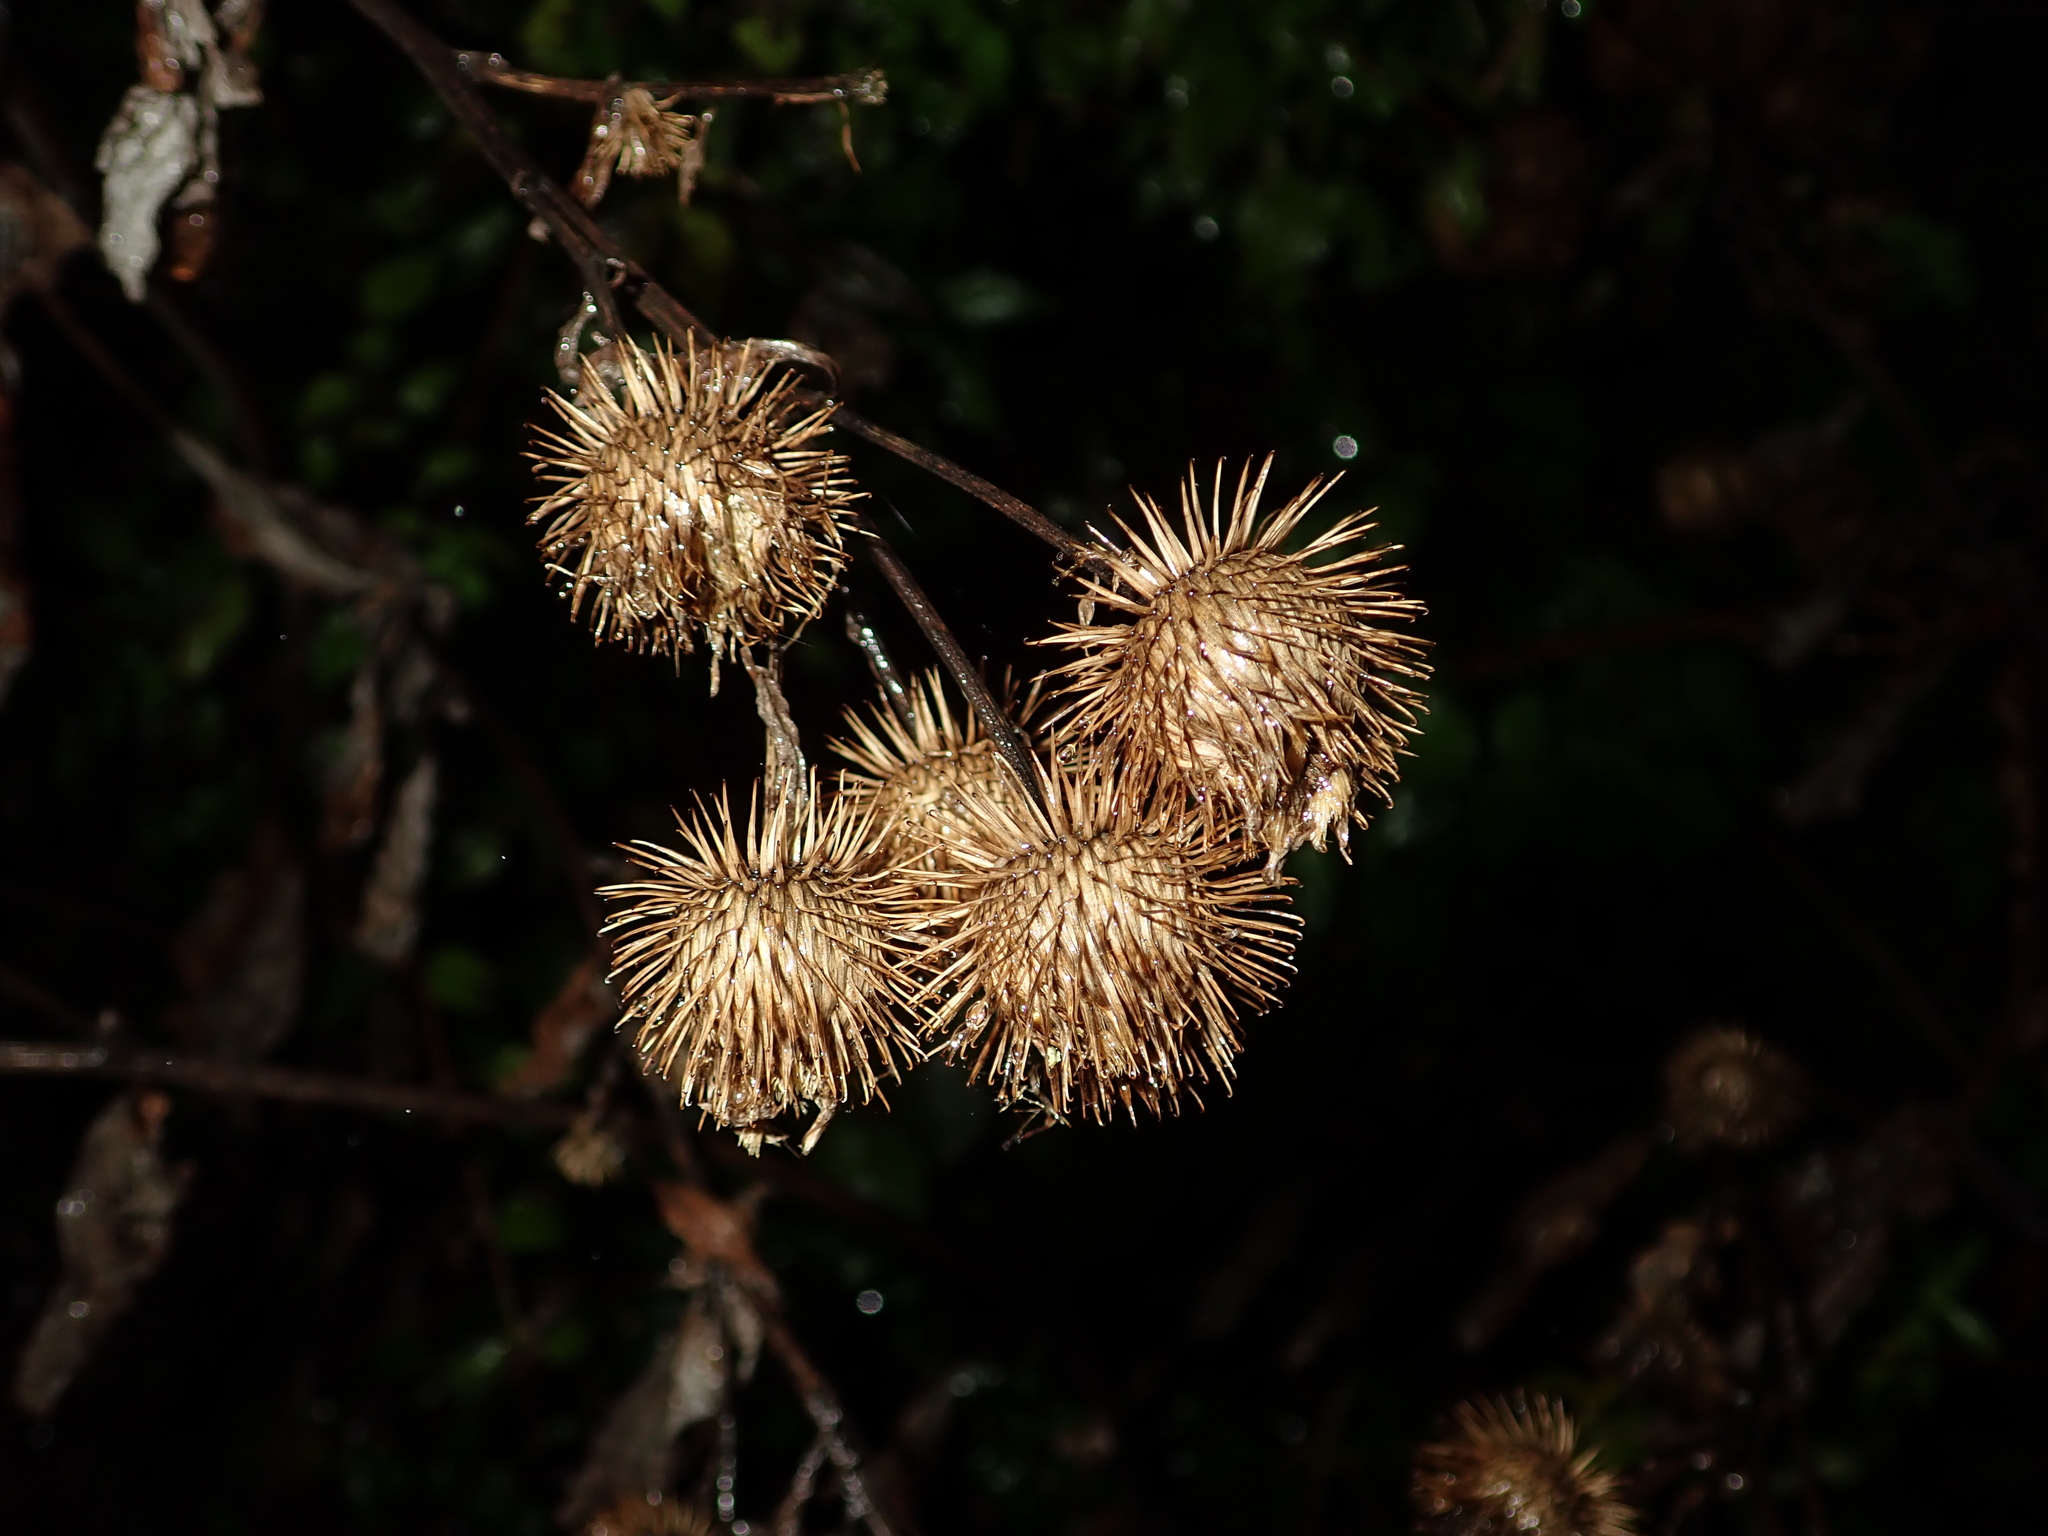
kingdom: Plantae
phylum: Tracheophyta
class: Magnoliopsida
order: Asterales
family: Asteraceae
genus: Arctium
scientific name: Arctium lappa
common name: Greater burdock
